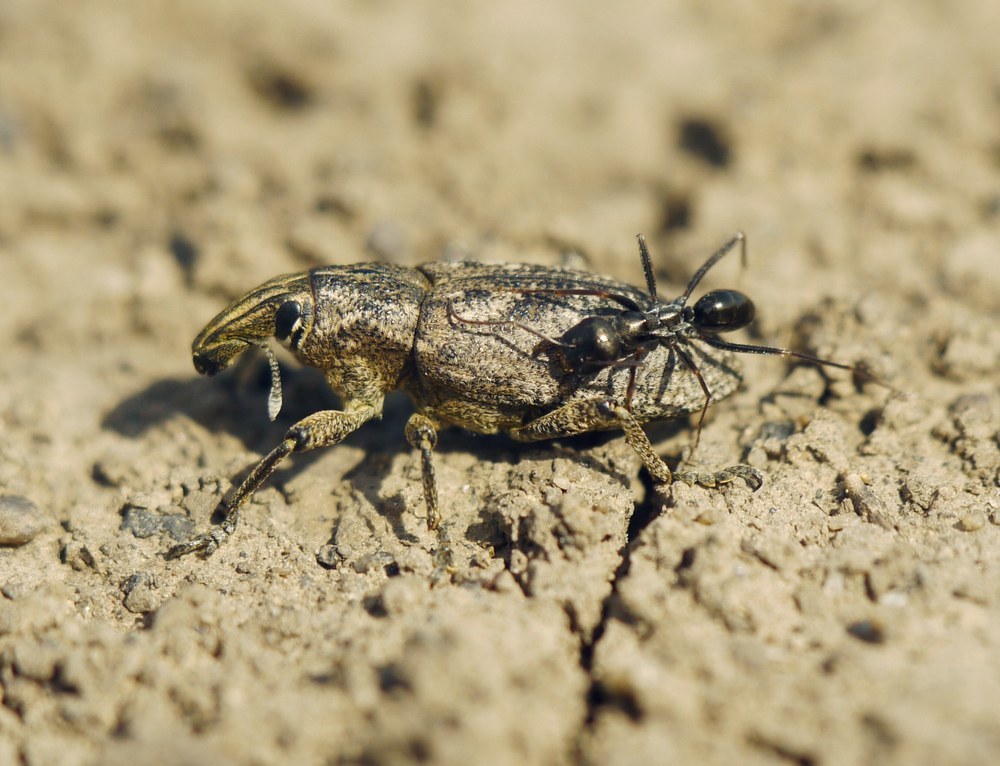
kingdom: Animalia
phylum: Arthropoda
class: Insecta
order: Coleoptera
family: Curculionidae
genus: Cleonis
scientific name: Cleonis pigra
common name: Large thistle weevil
